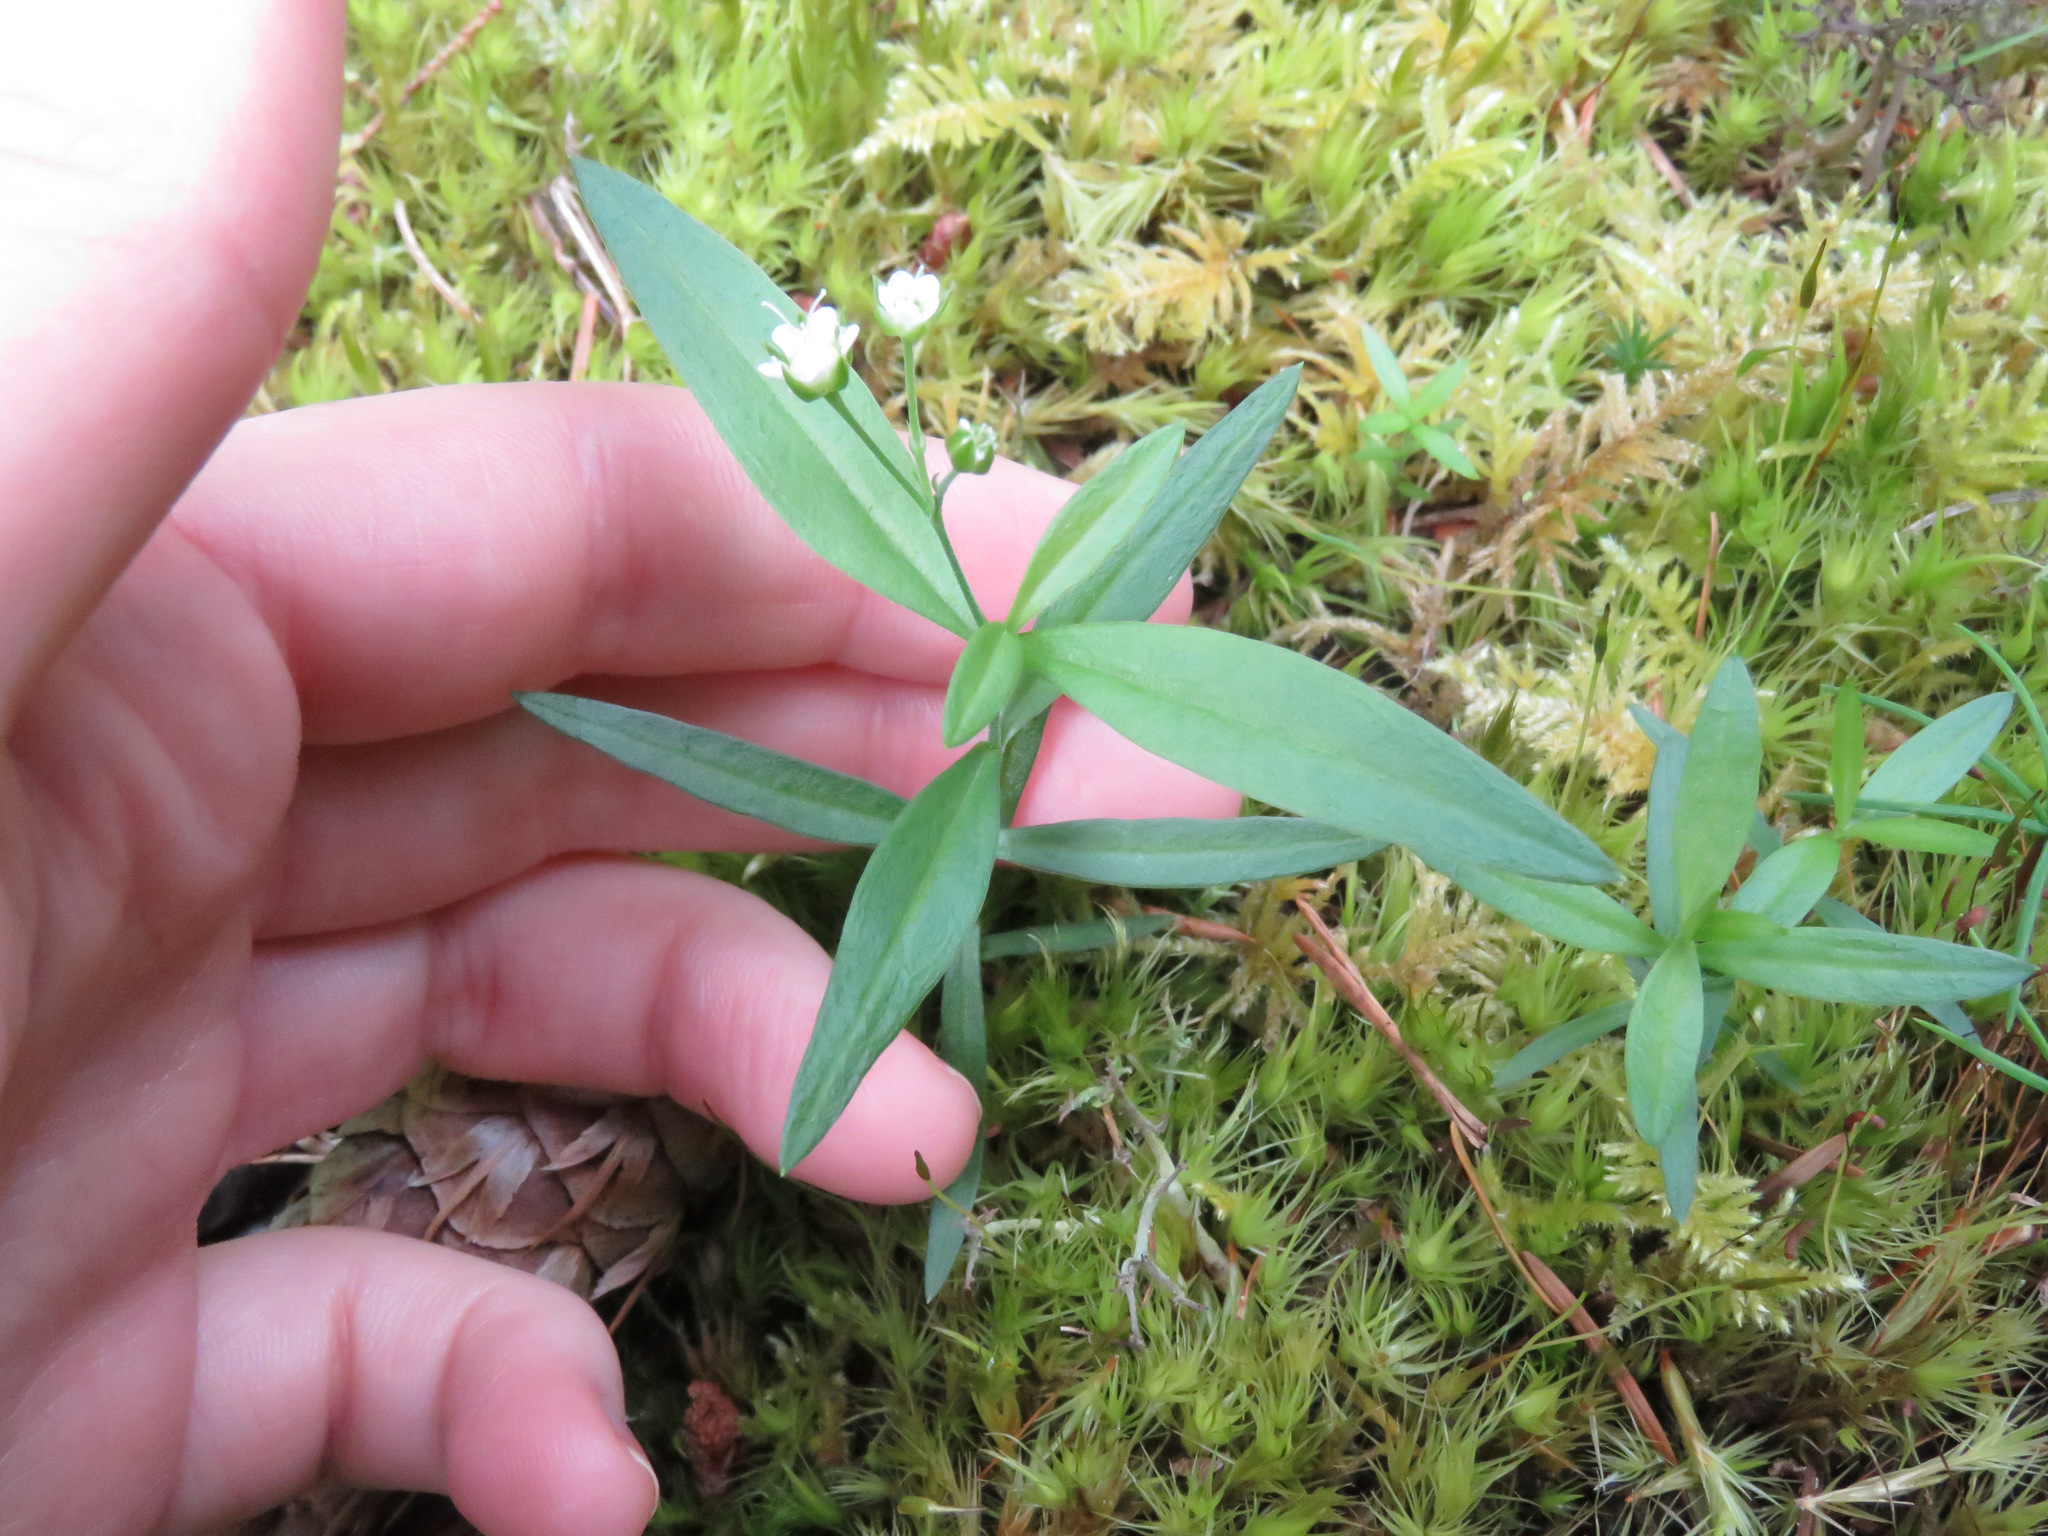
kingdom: Plantae
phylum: Tracheophyta
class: Magnoliopsida
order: Caryophyllales
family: Caryophyllaceae
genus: Moehringia
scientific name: Moehringia macrophylla
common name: Big-leaf sandwort
